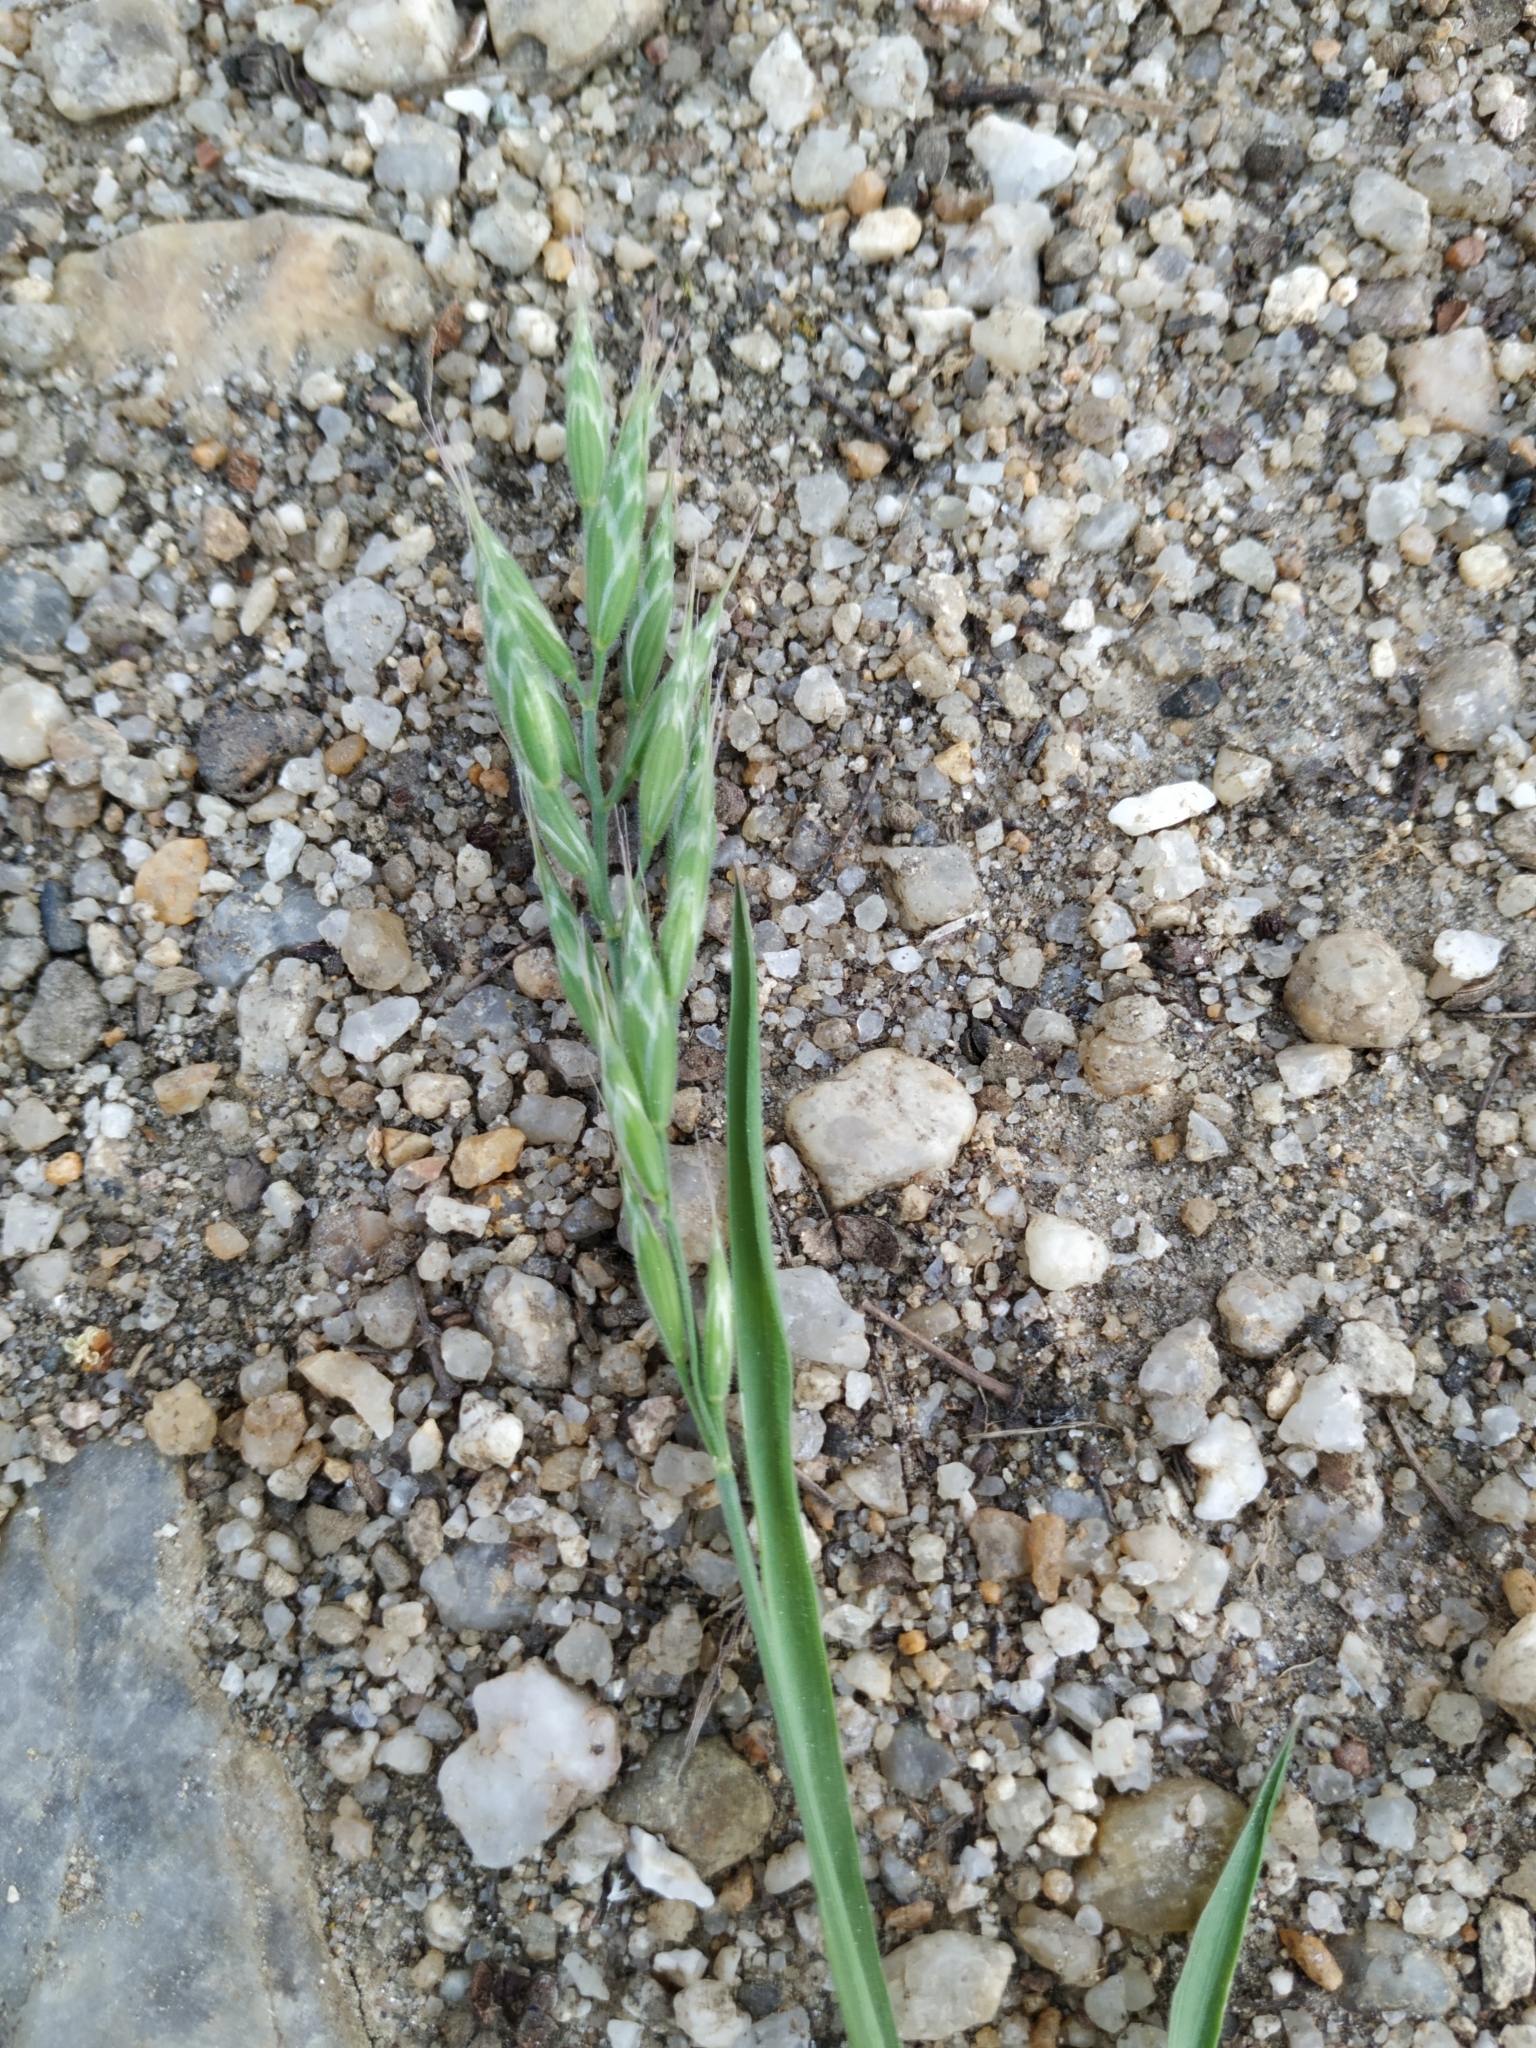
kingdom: Plantae
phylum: Tracheophyta
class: Liliopsida
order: Poales
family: Poaceae
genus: Bromus
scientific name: Bromus hordeaceus
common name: Soft brome
